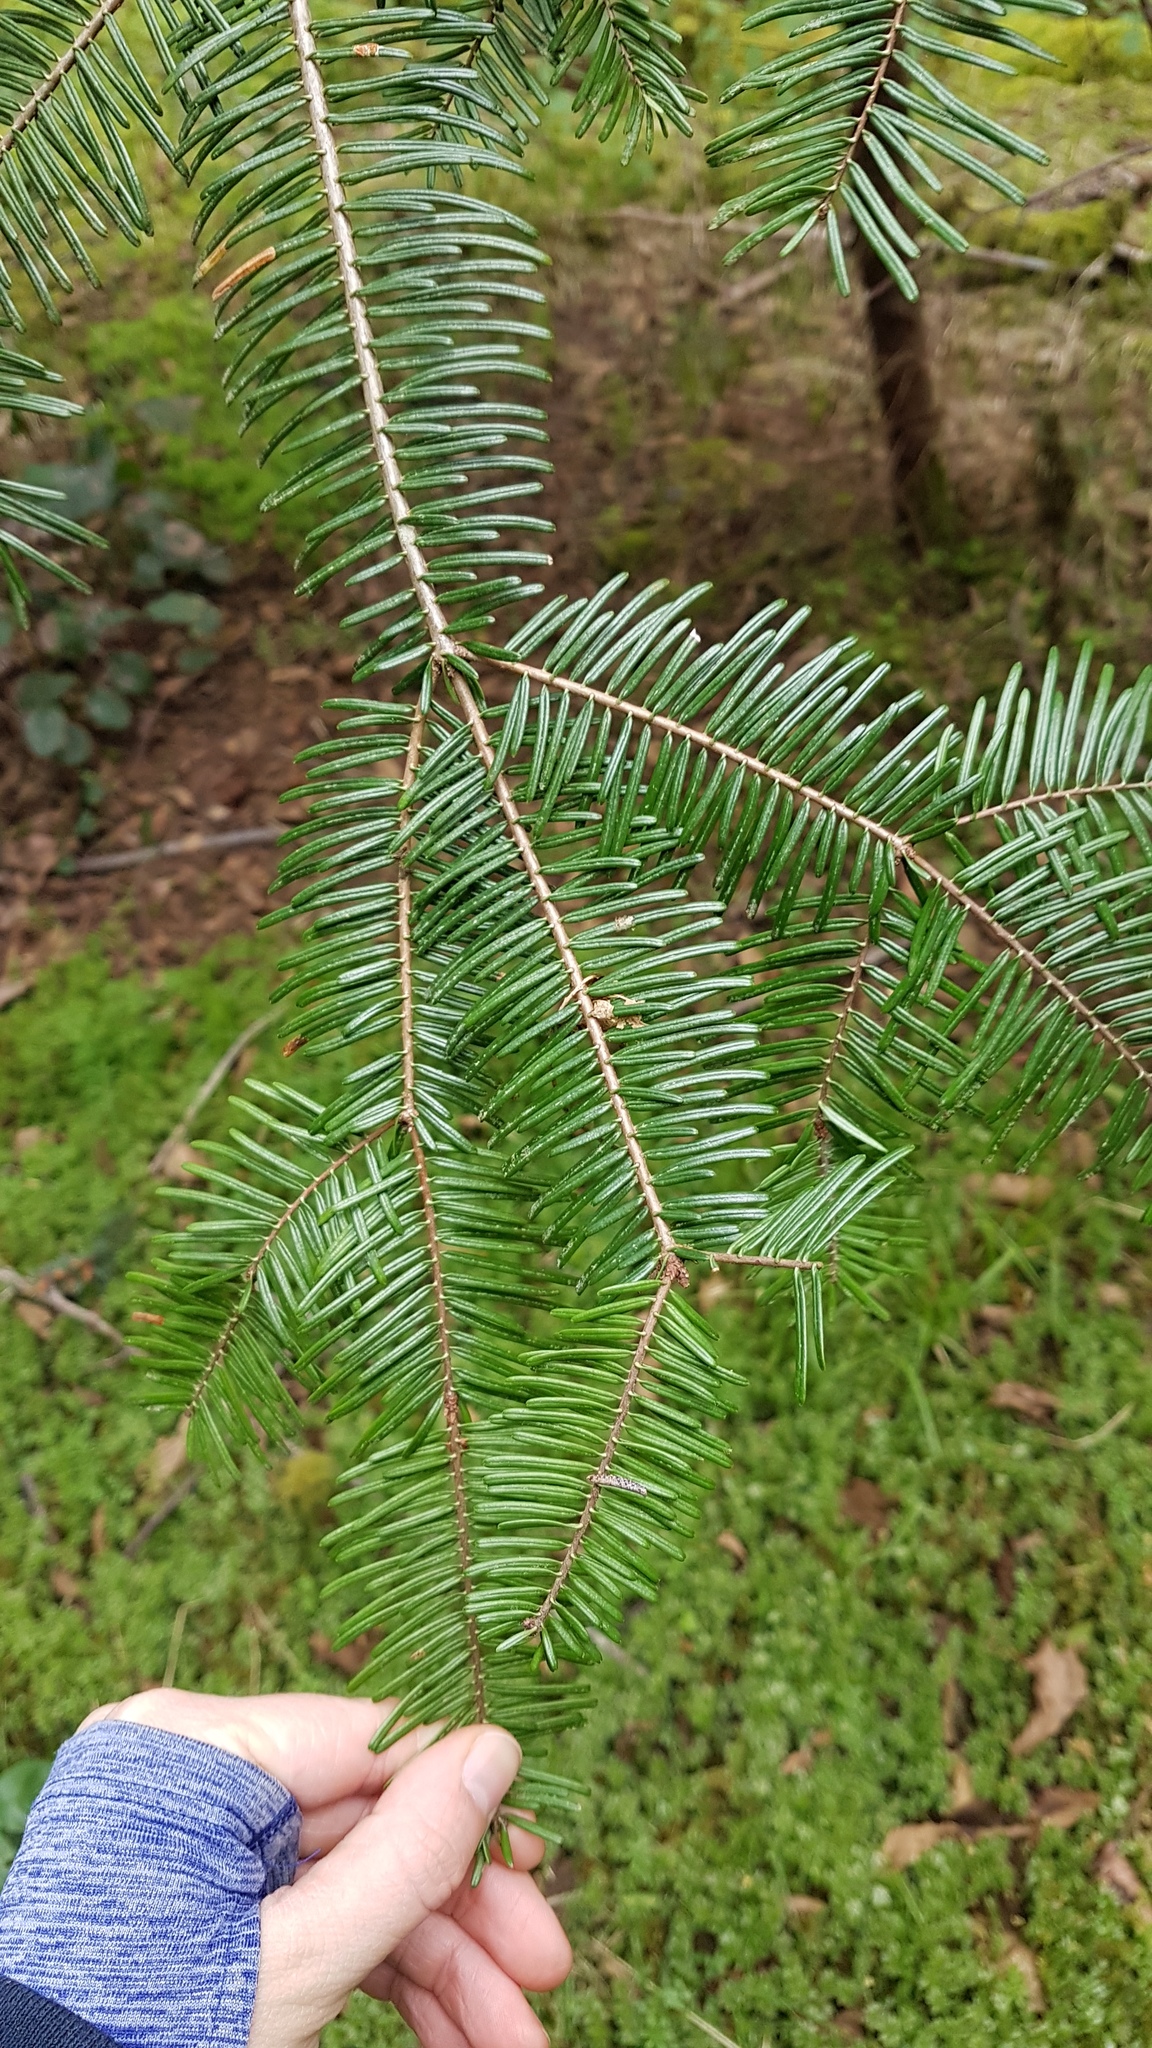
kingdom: Plantae
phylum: Tracheophyta
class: Pinopsida
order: Pinales
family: Pinaceae
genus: Abies
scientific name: Abies grandis
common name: Giant fir
